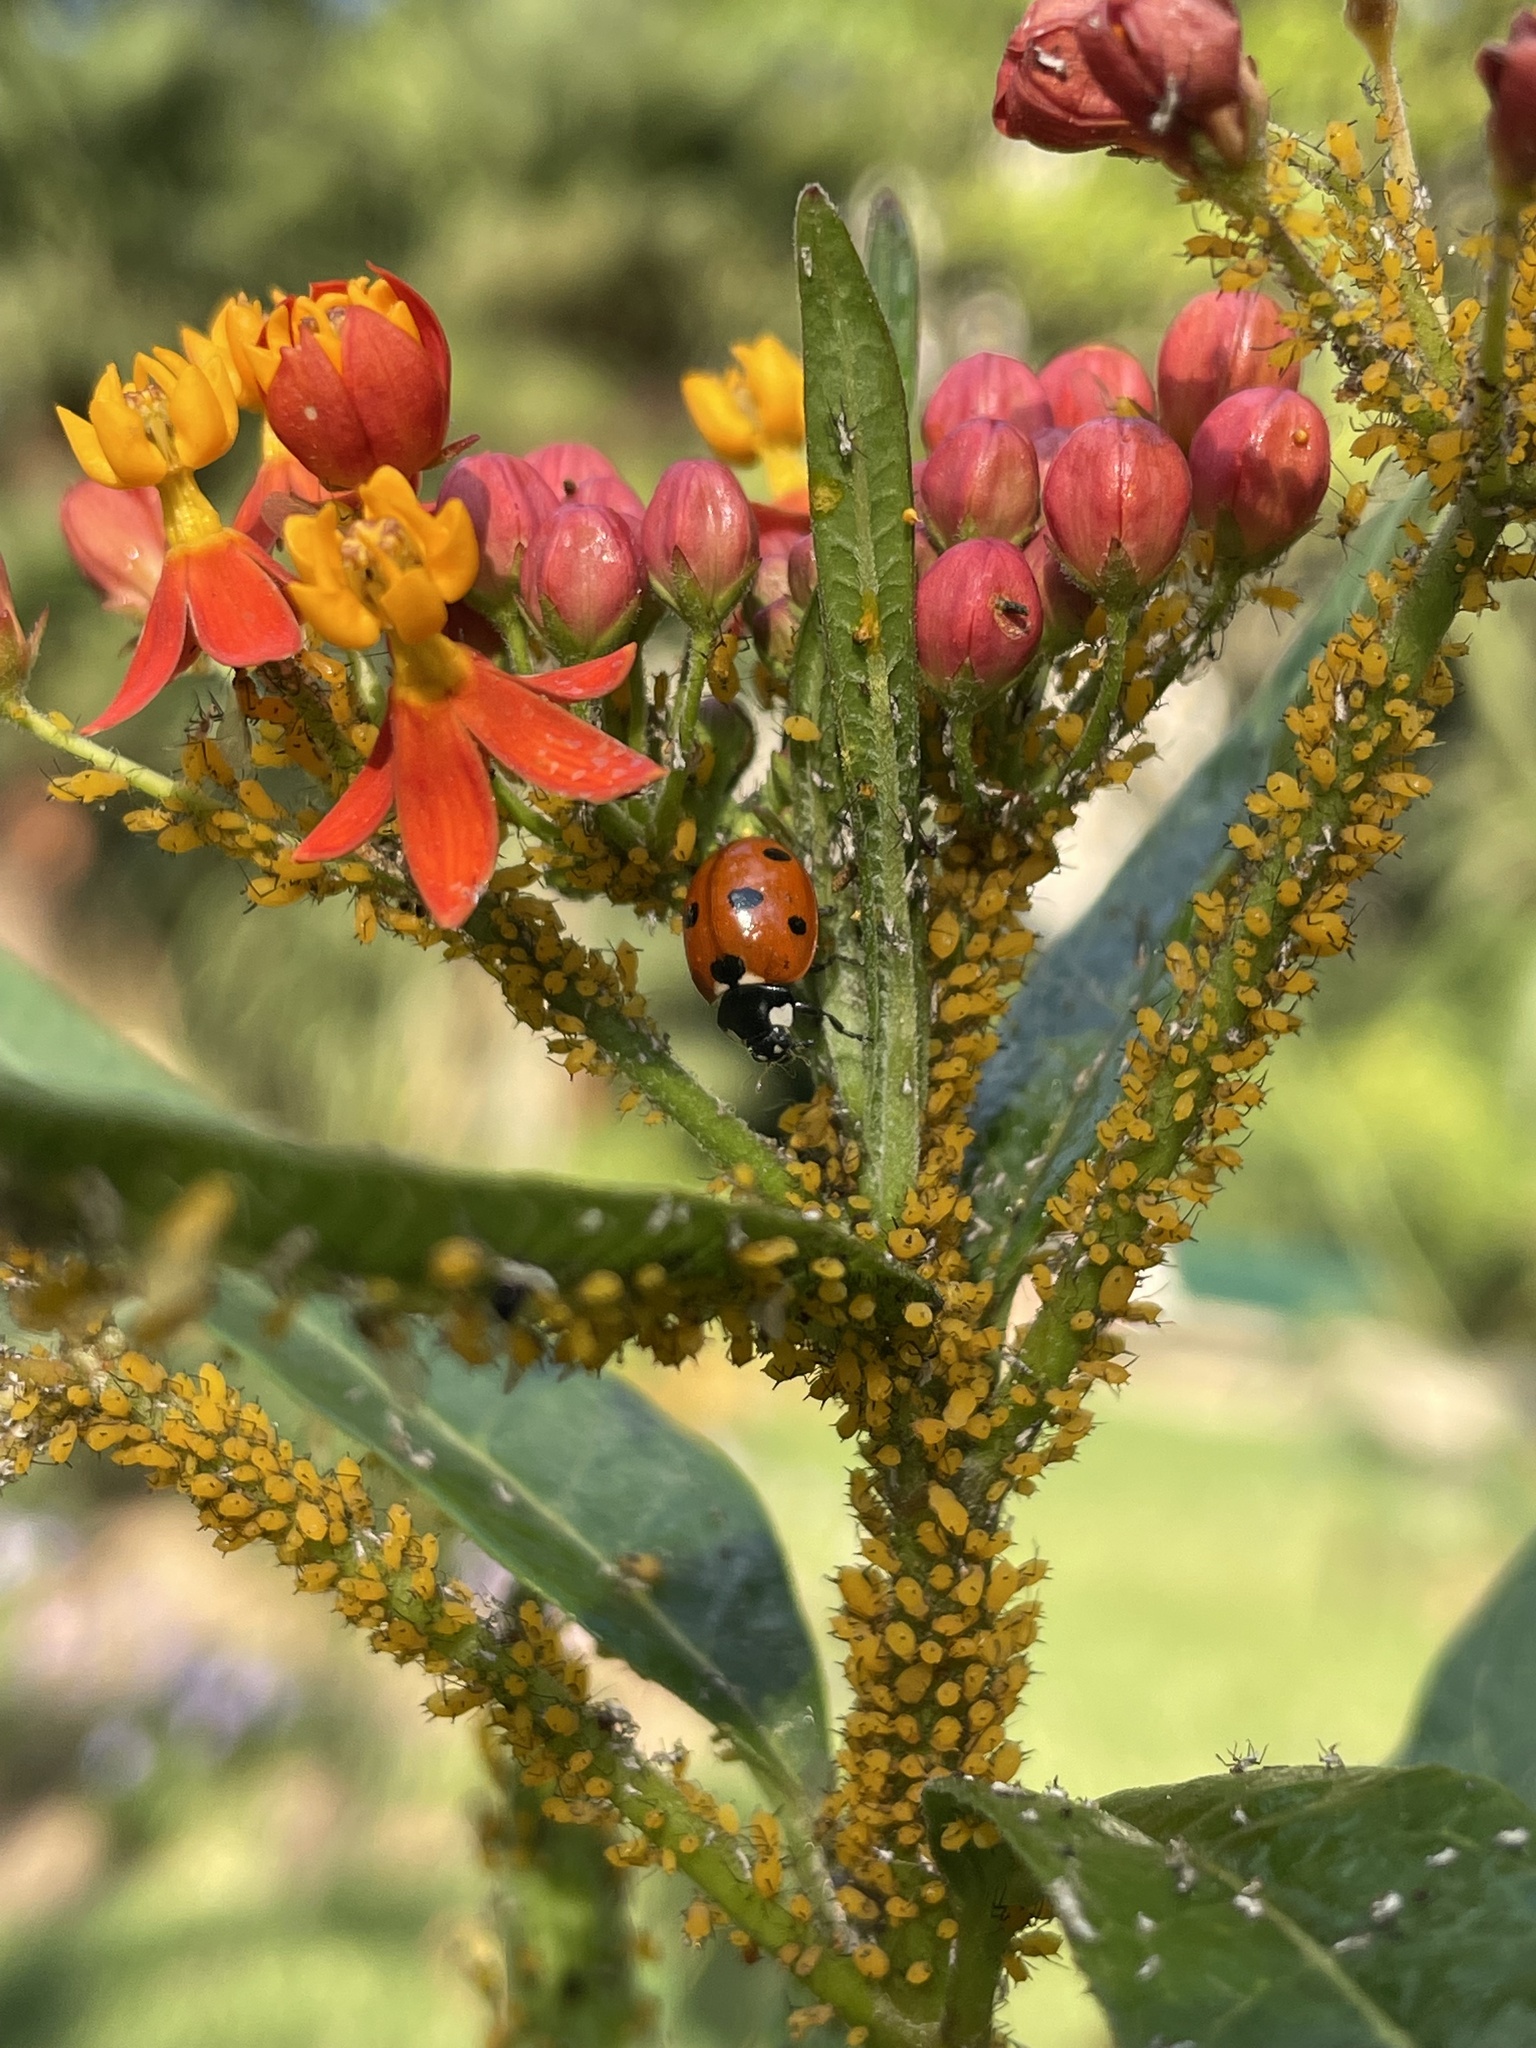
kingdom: Animalia
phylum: Arthropoda
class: Insecta
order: Hemiptera
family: Aphididae
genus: Aphis
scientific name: Aphis nerii
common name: Oleander aphid
